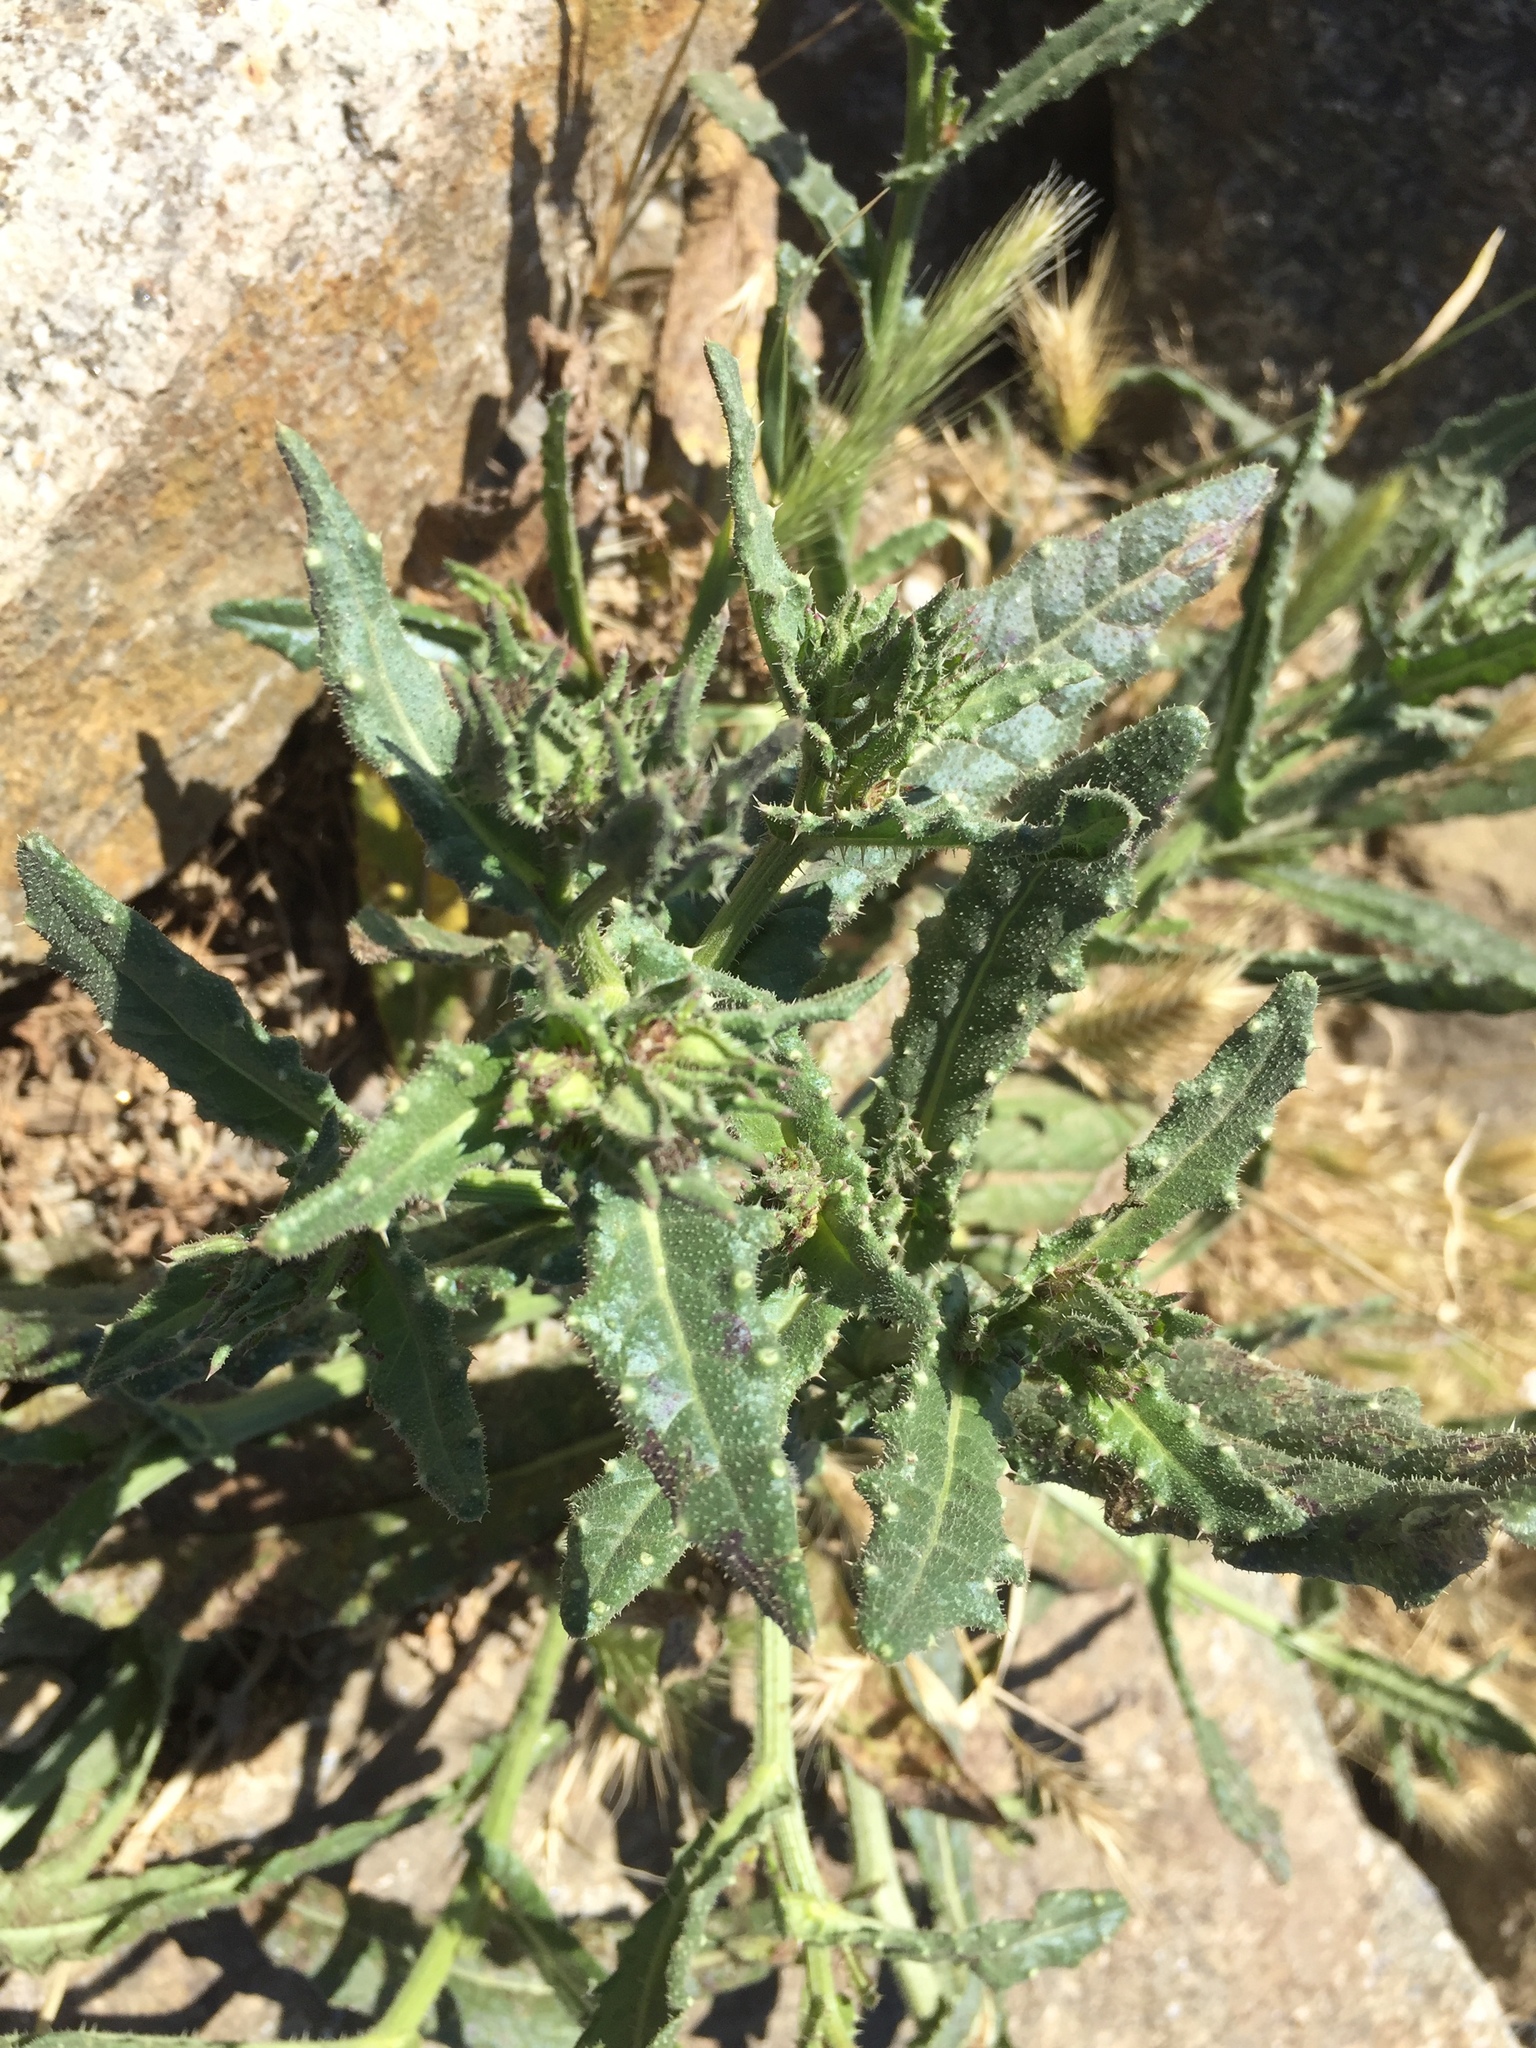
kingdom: Plantae
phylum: Tracheophyta
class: Magnoliopsida
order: Asterales
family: Asteraceae
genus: Helminthotheca
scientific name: Helminthotheca echioides
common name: Ox-tongue
